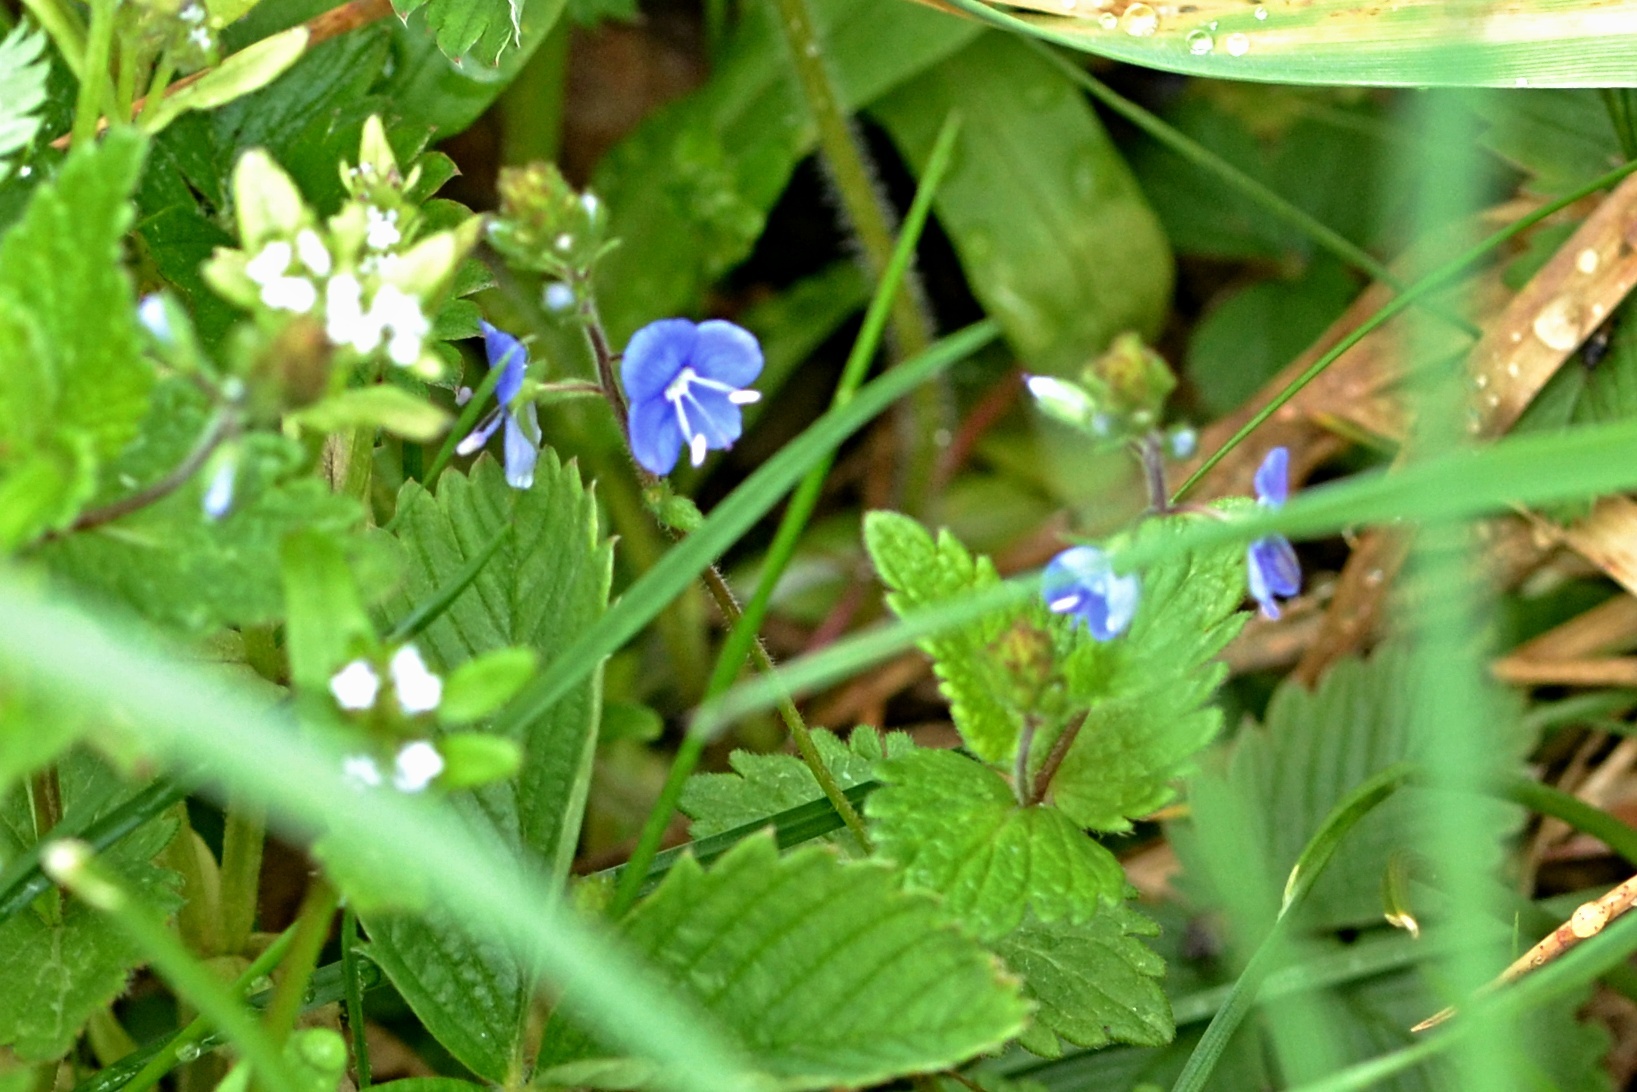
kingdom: Plantae
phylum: Tracheophyta
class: Magnoliopsida
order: Lamiales
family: Plantaginaceae
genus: Veronica
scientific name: Veronica chamaedrys
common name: Germander speedwell
